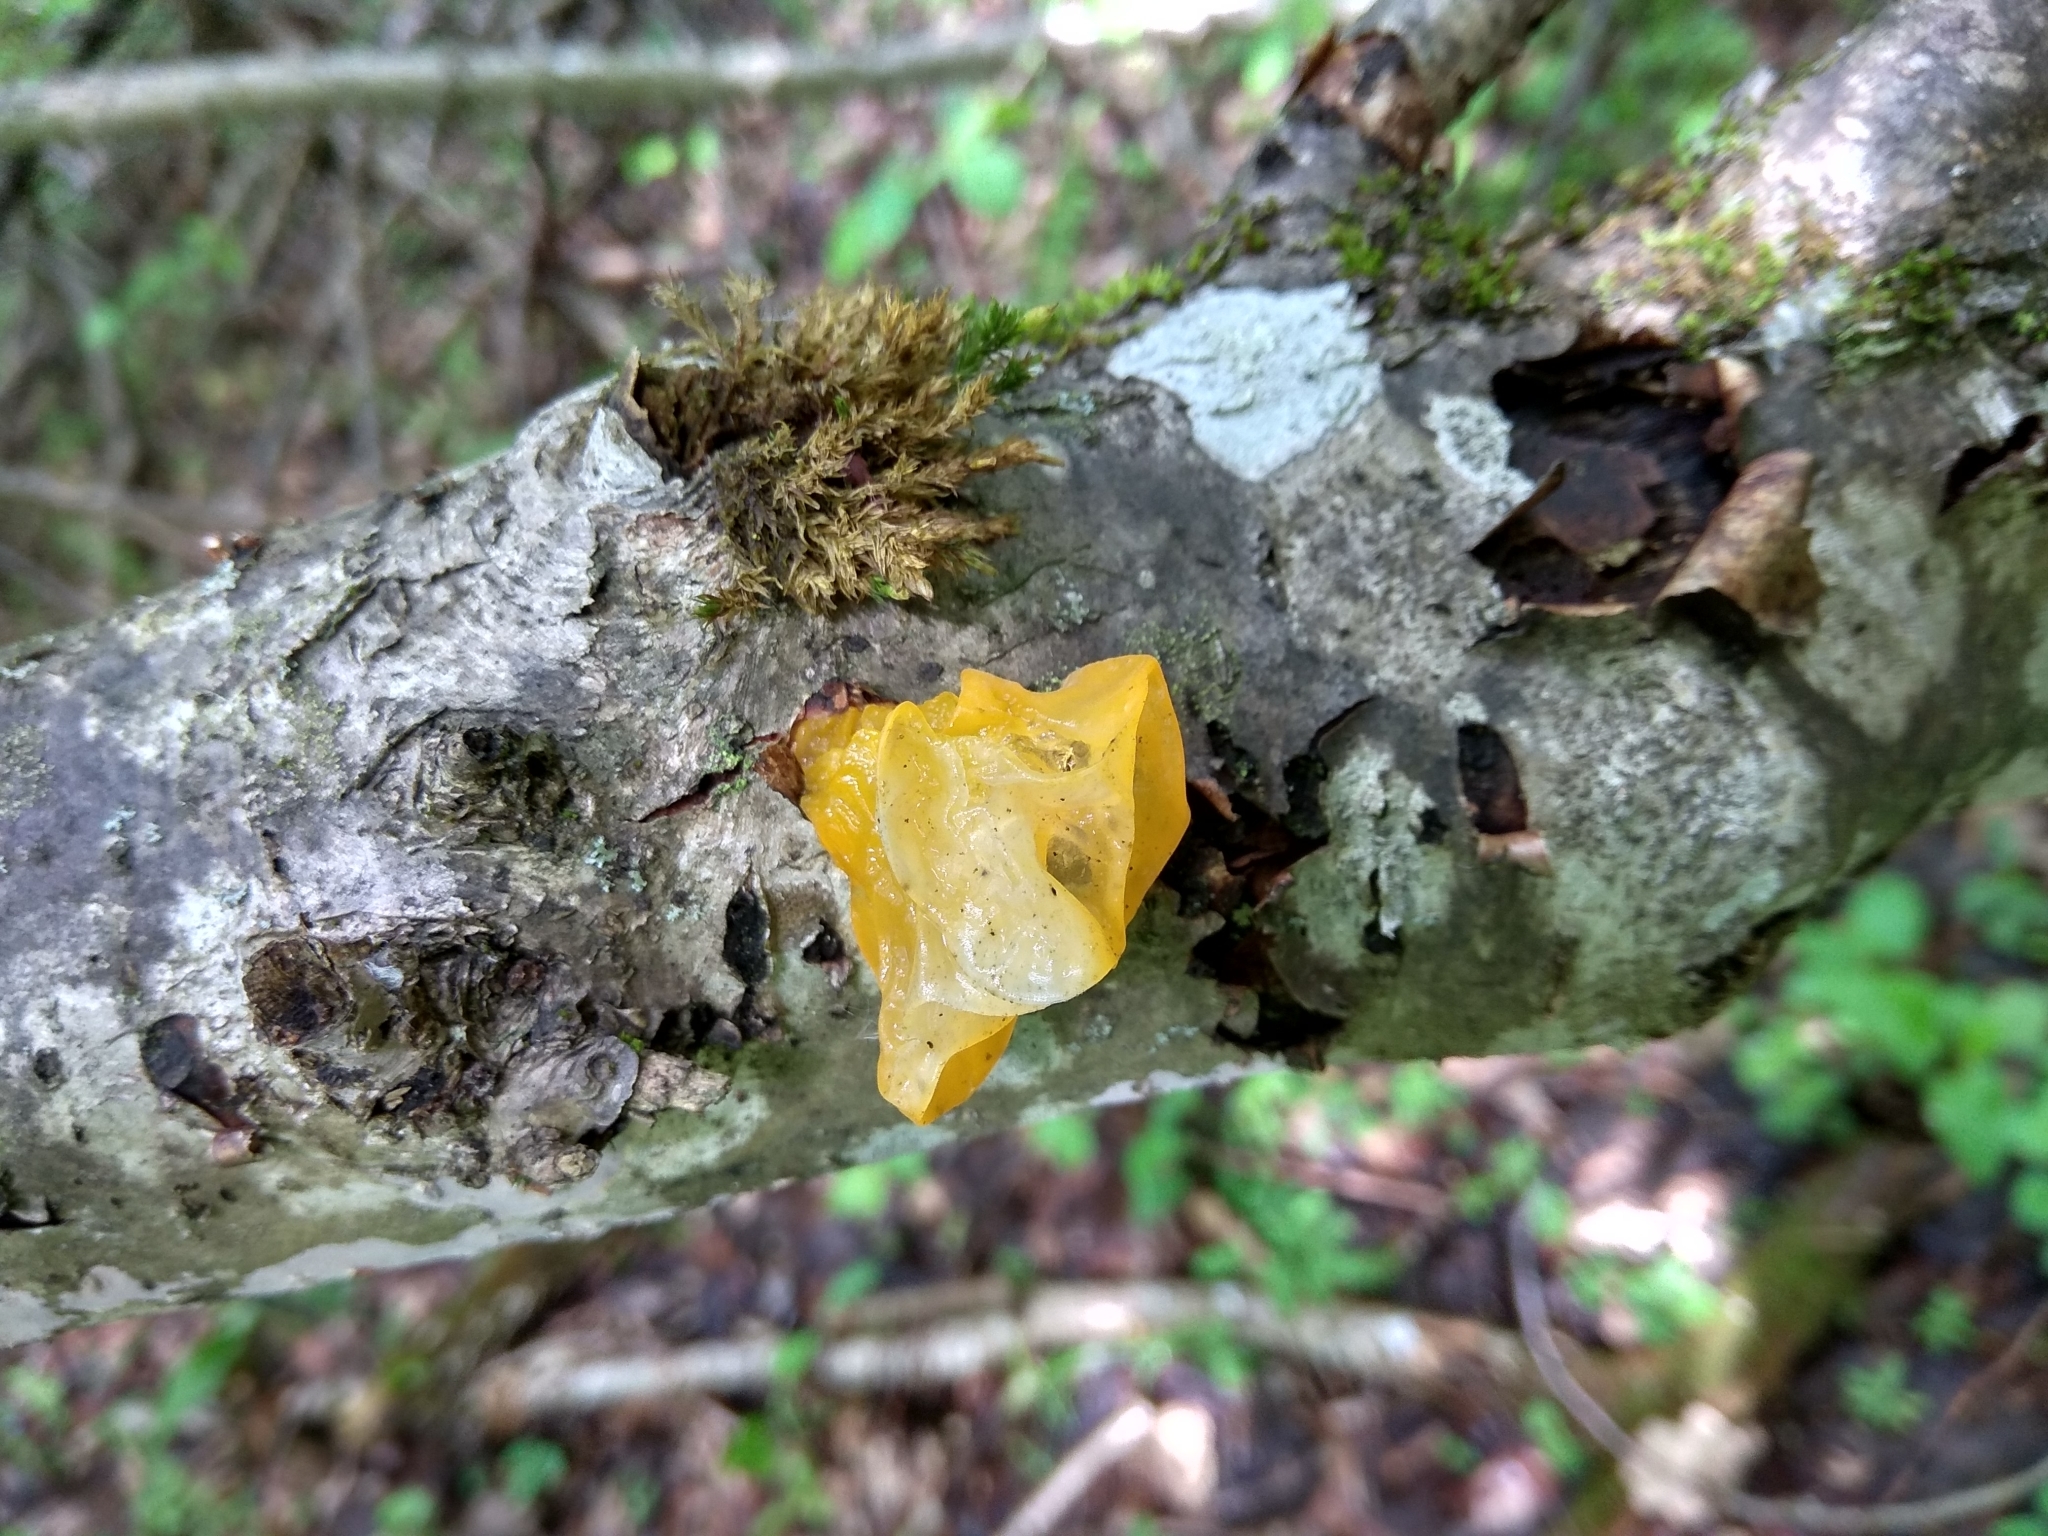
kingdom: Fungi
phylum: Basidiomycota
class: Tremellomycetes
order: Tremellales
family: Tremellaceae
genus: Tremella
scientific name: Tremella mesenterica
